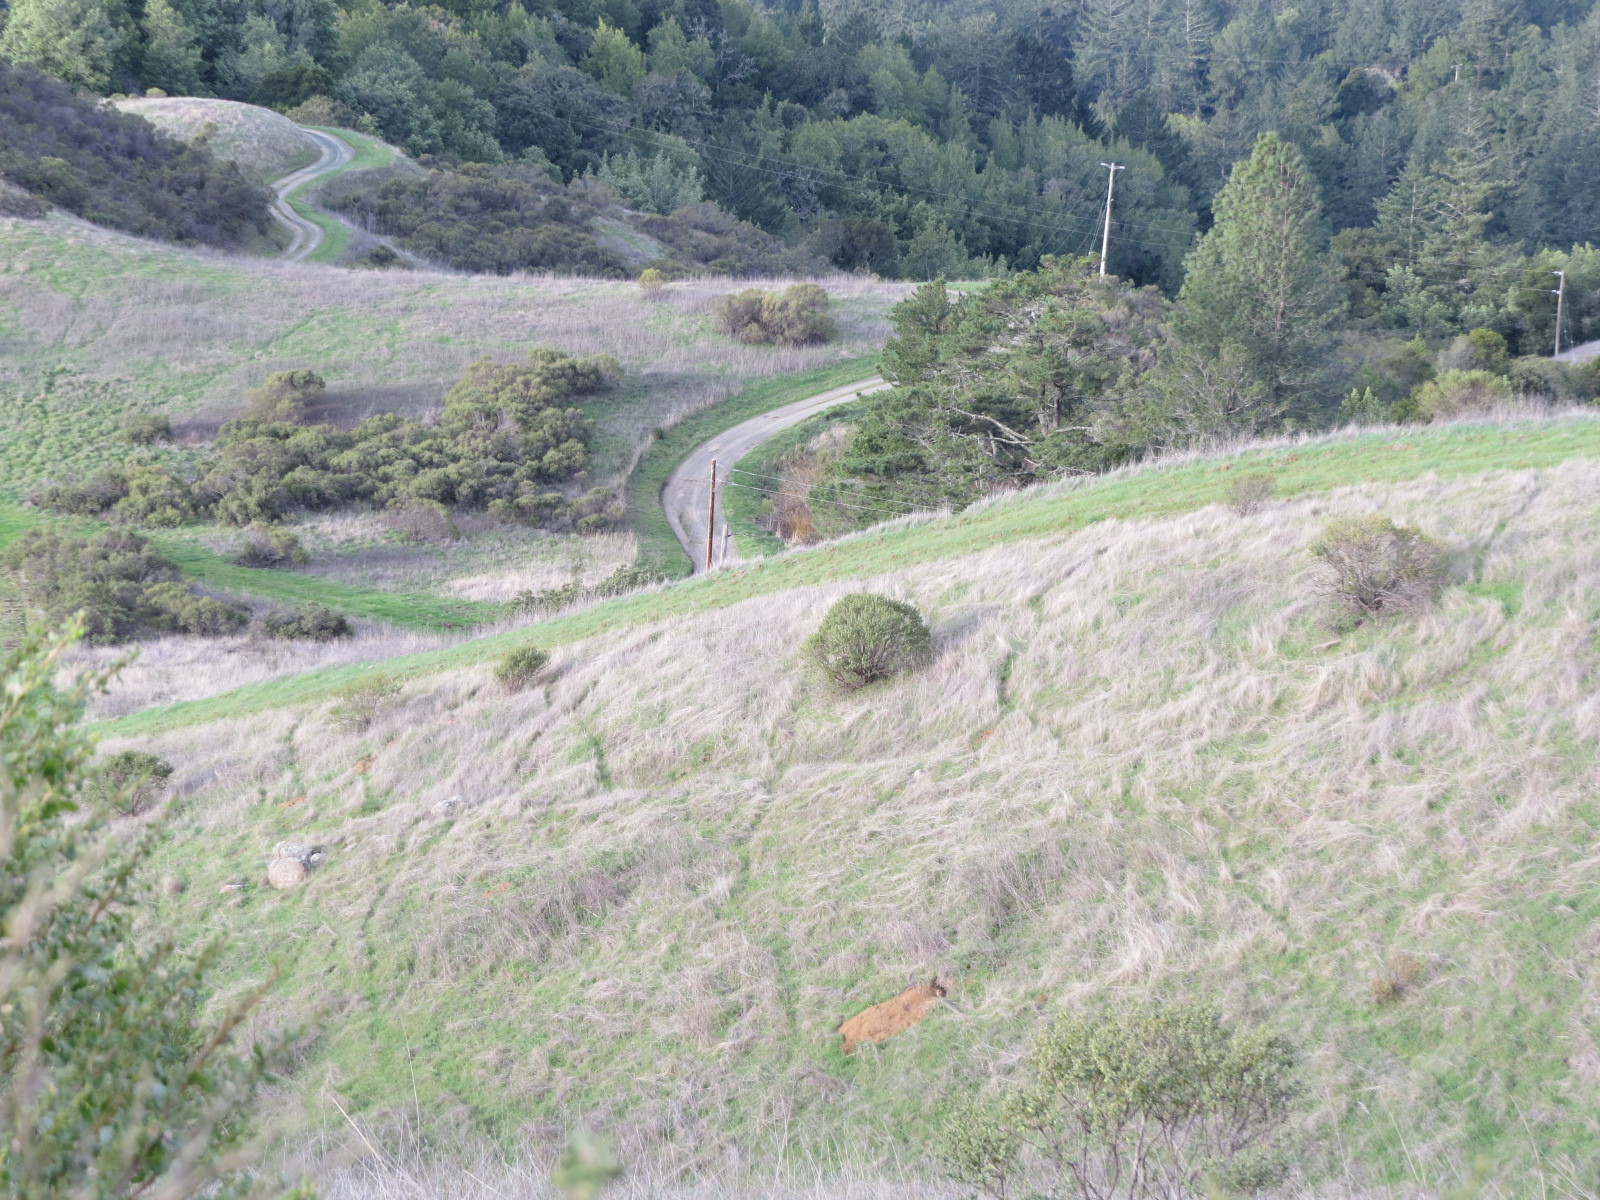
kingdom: Animalia
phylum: Chordata
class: Aves
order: Strigiformes
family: Strigidae
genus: Athene
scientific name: Athene cunicularia
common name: Burrowing owl
